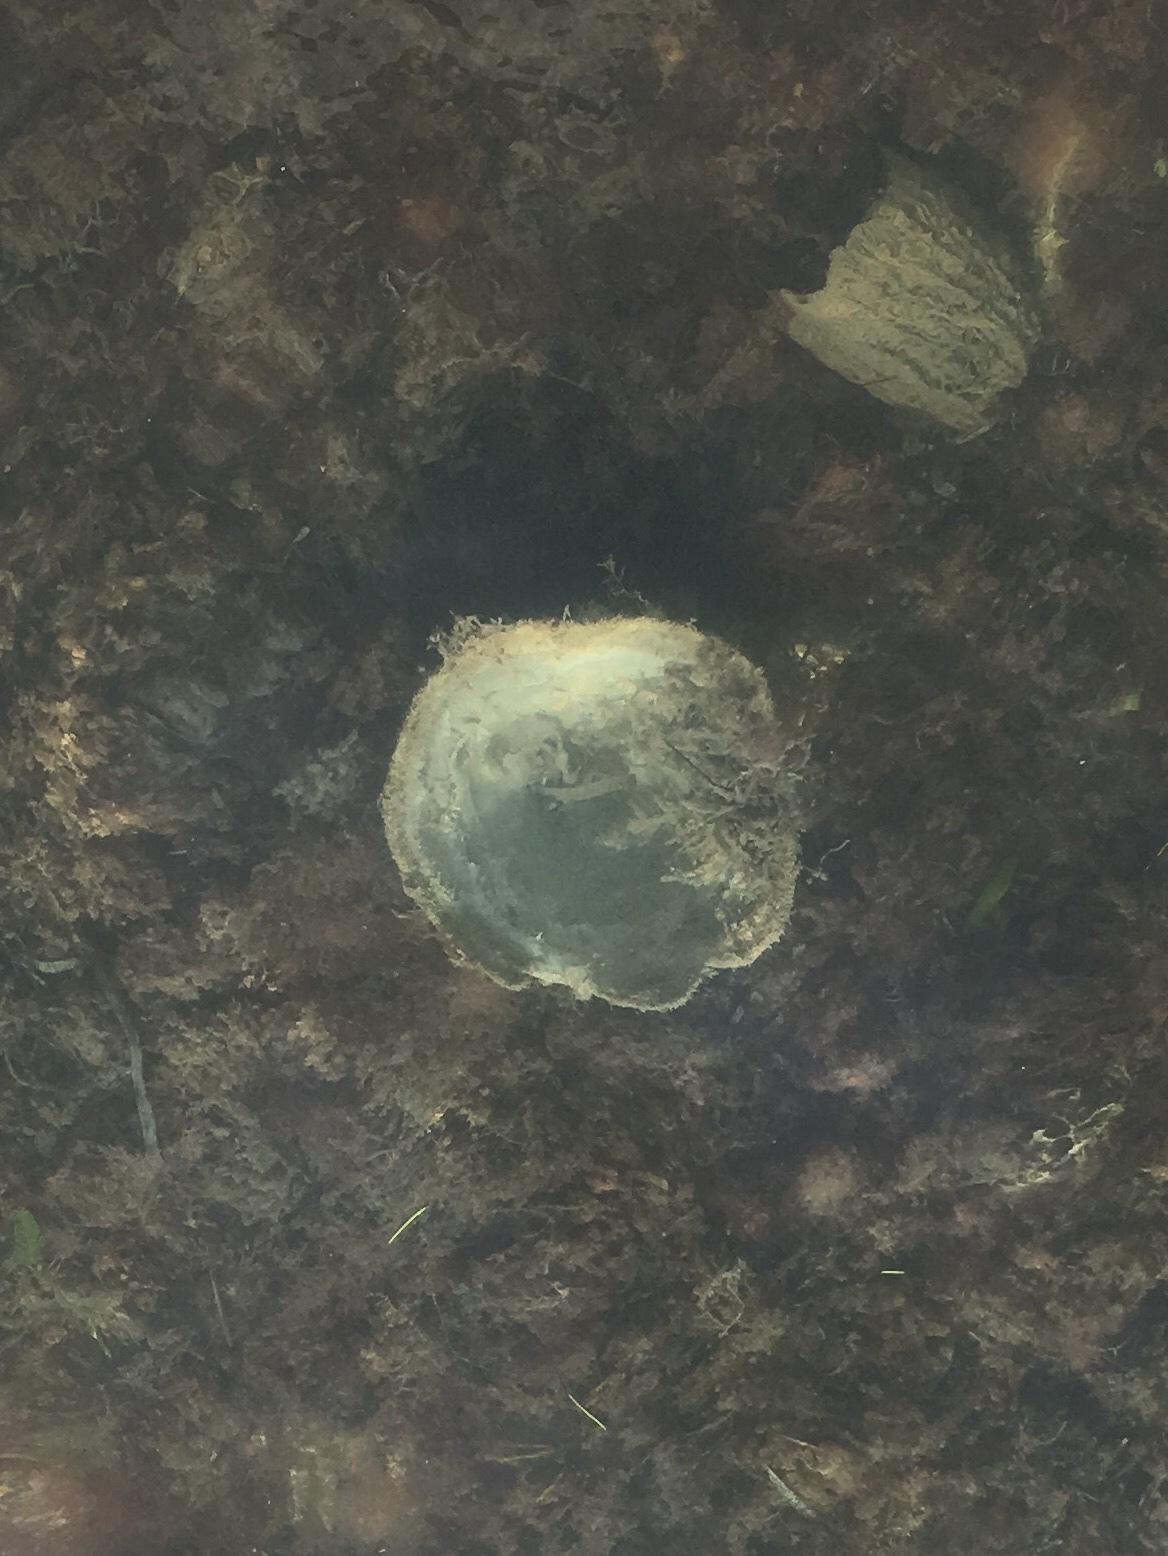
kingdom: Animalia
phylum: Porifera
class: Demospongiae
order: Dictyoceratida
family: Irciniidae
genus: Ircinia
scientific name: Ircinia campana
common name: Vase sponge
